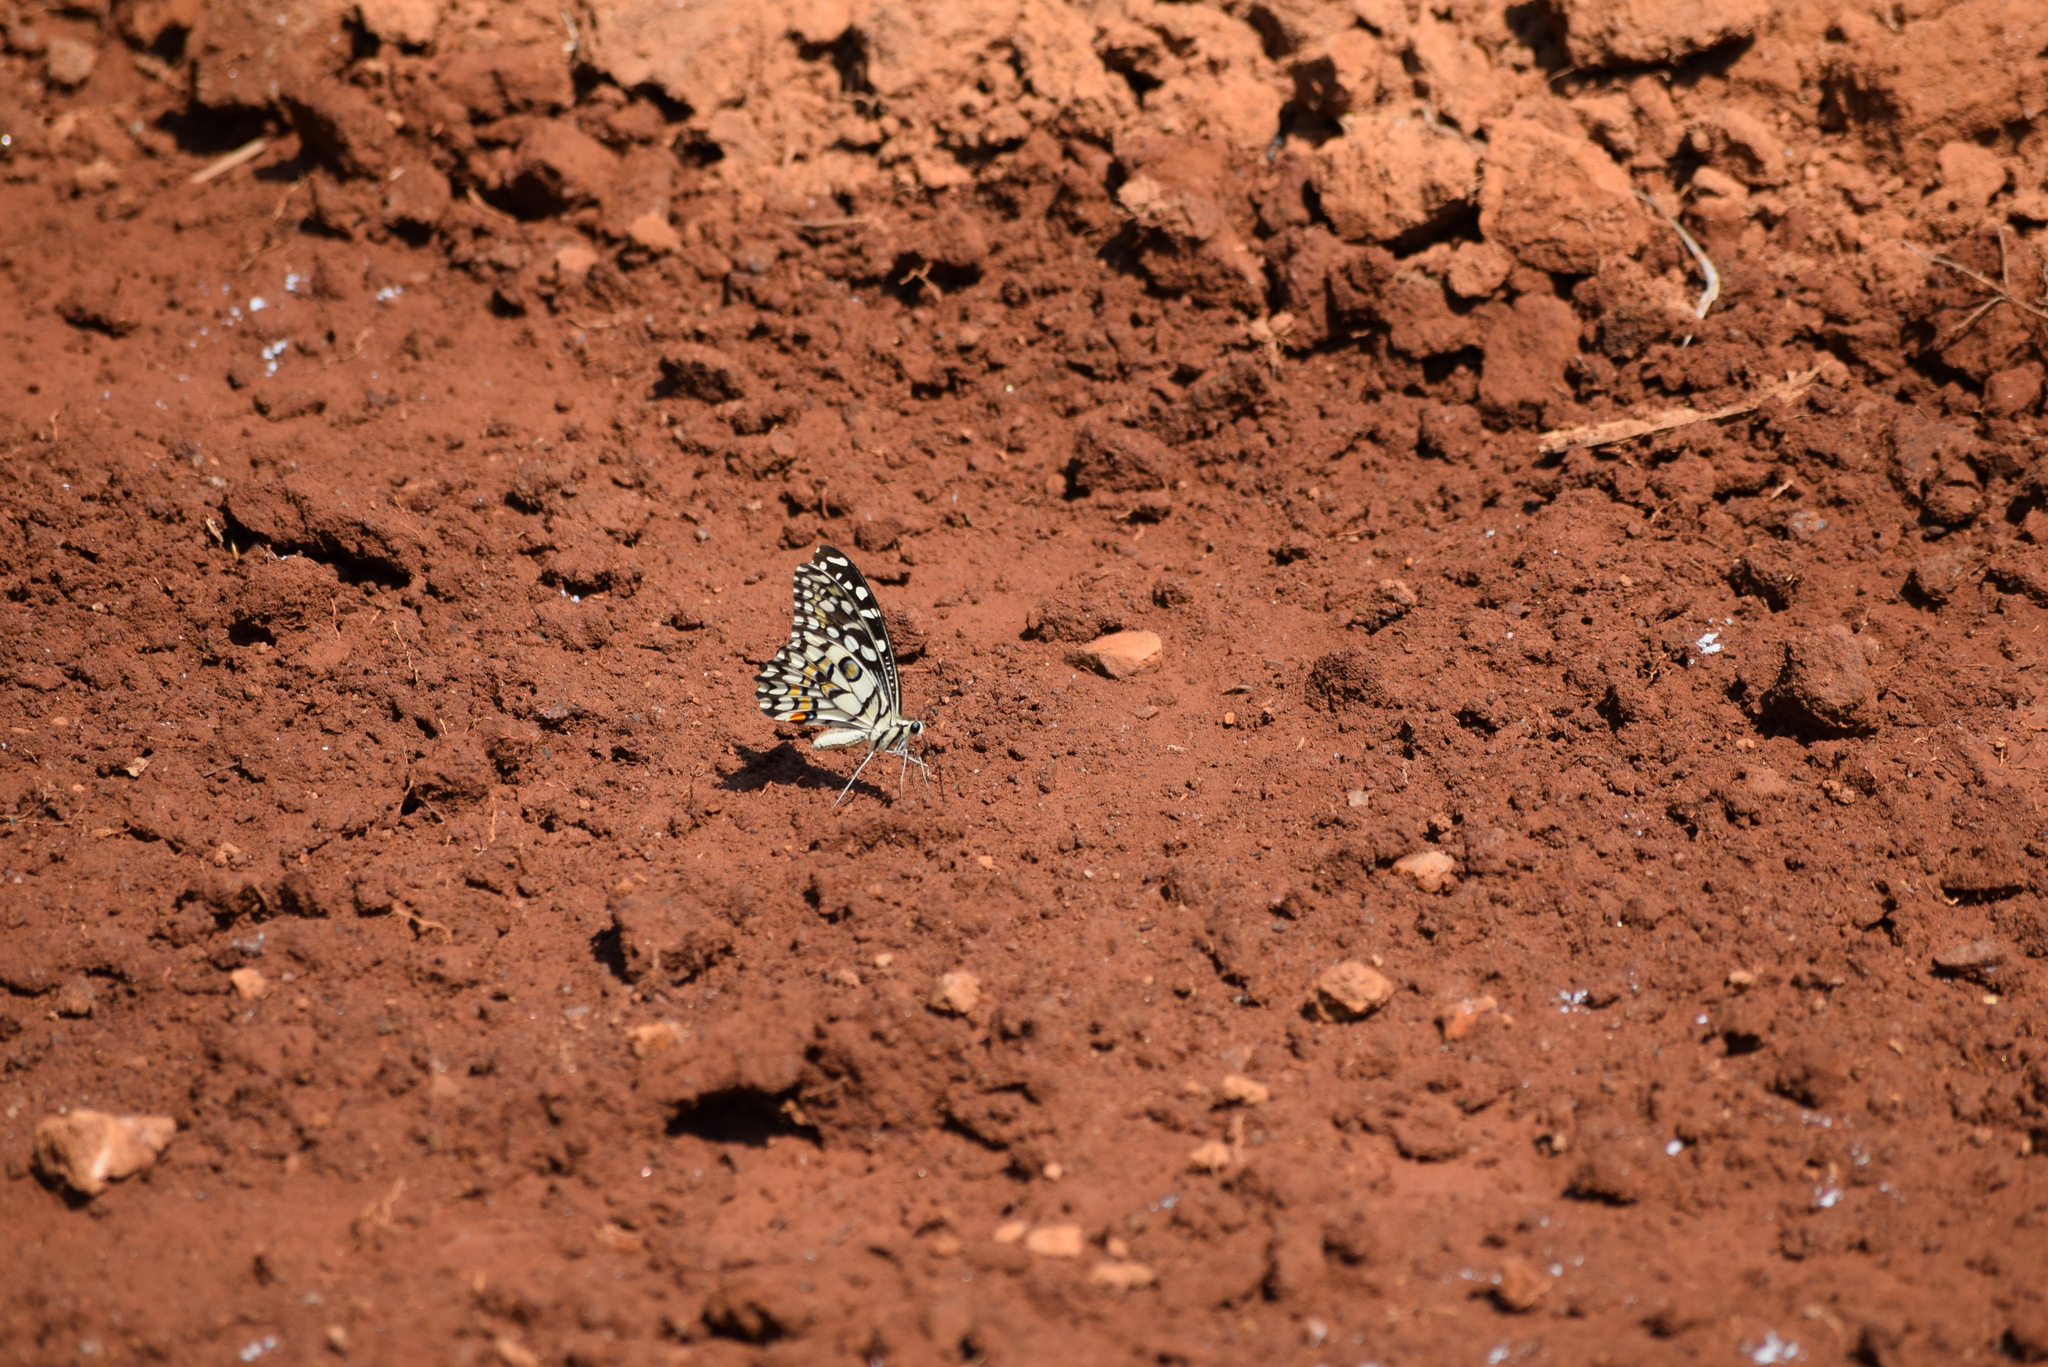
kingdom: Animalia
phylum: Arthropoda
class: Insecta
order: Lepidoptera
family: Papilionidae
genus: Papilio
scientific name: Papilio demoleus
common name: Lime butterfly
